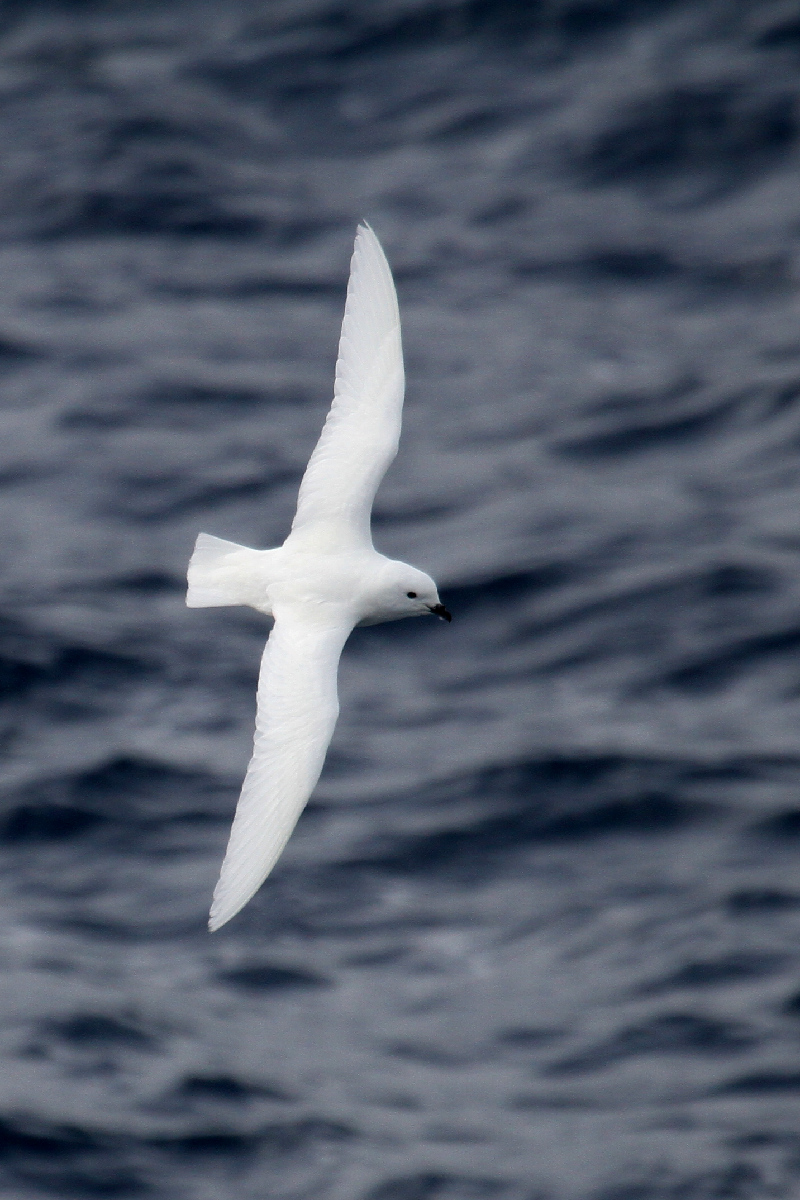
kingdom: Animalia
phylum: Chordata
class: Aves
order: Procellariiformes
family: Procellariidae
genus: Pagodroma
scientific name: Pagodroma nivea
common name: Snow petrel
